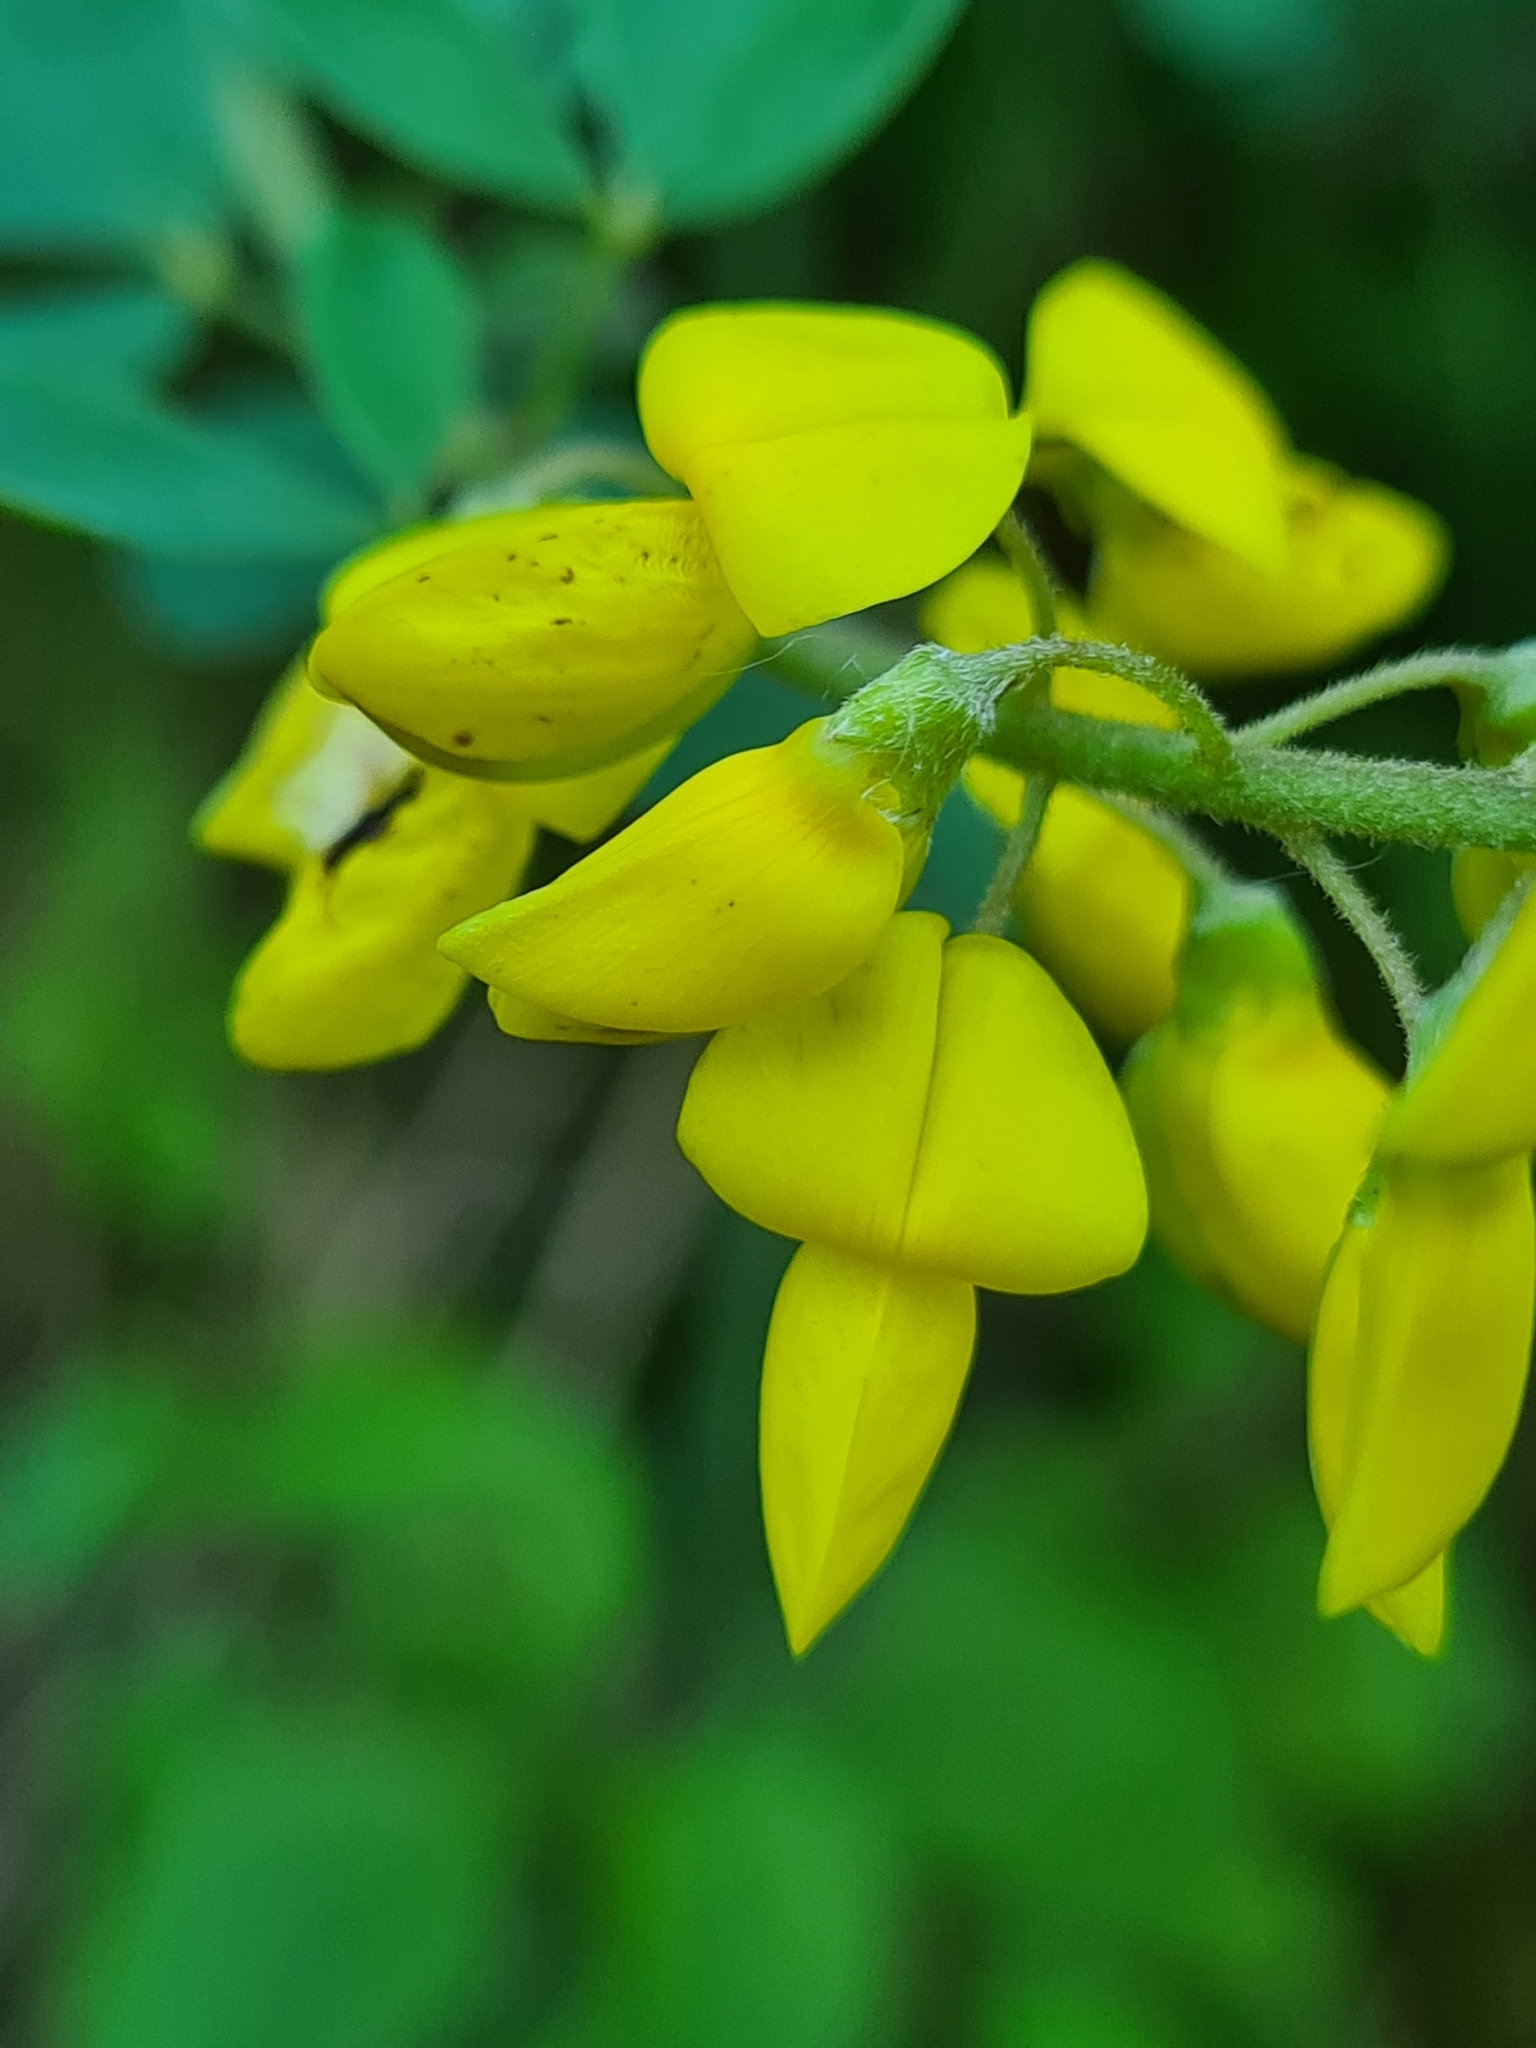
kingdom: Plantae
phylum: Tracheophyta
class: Magnoliopsida
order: Fabales
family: Fabaceae
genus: Cytisus
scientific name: Cytisus nigricans
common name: Black broom
